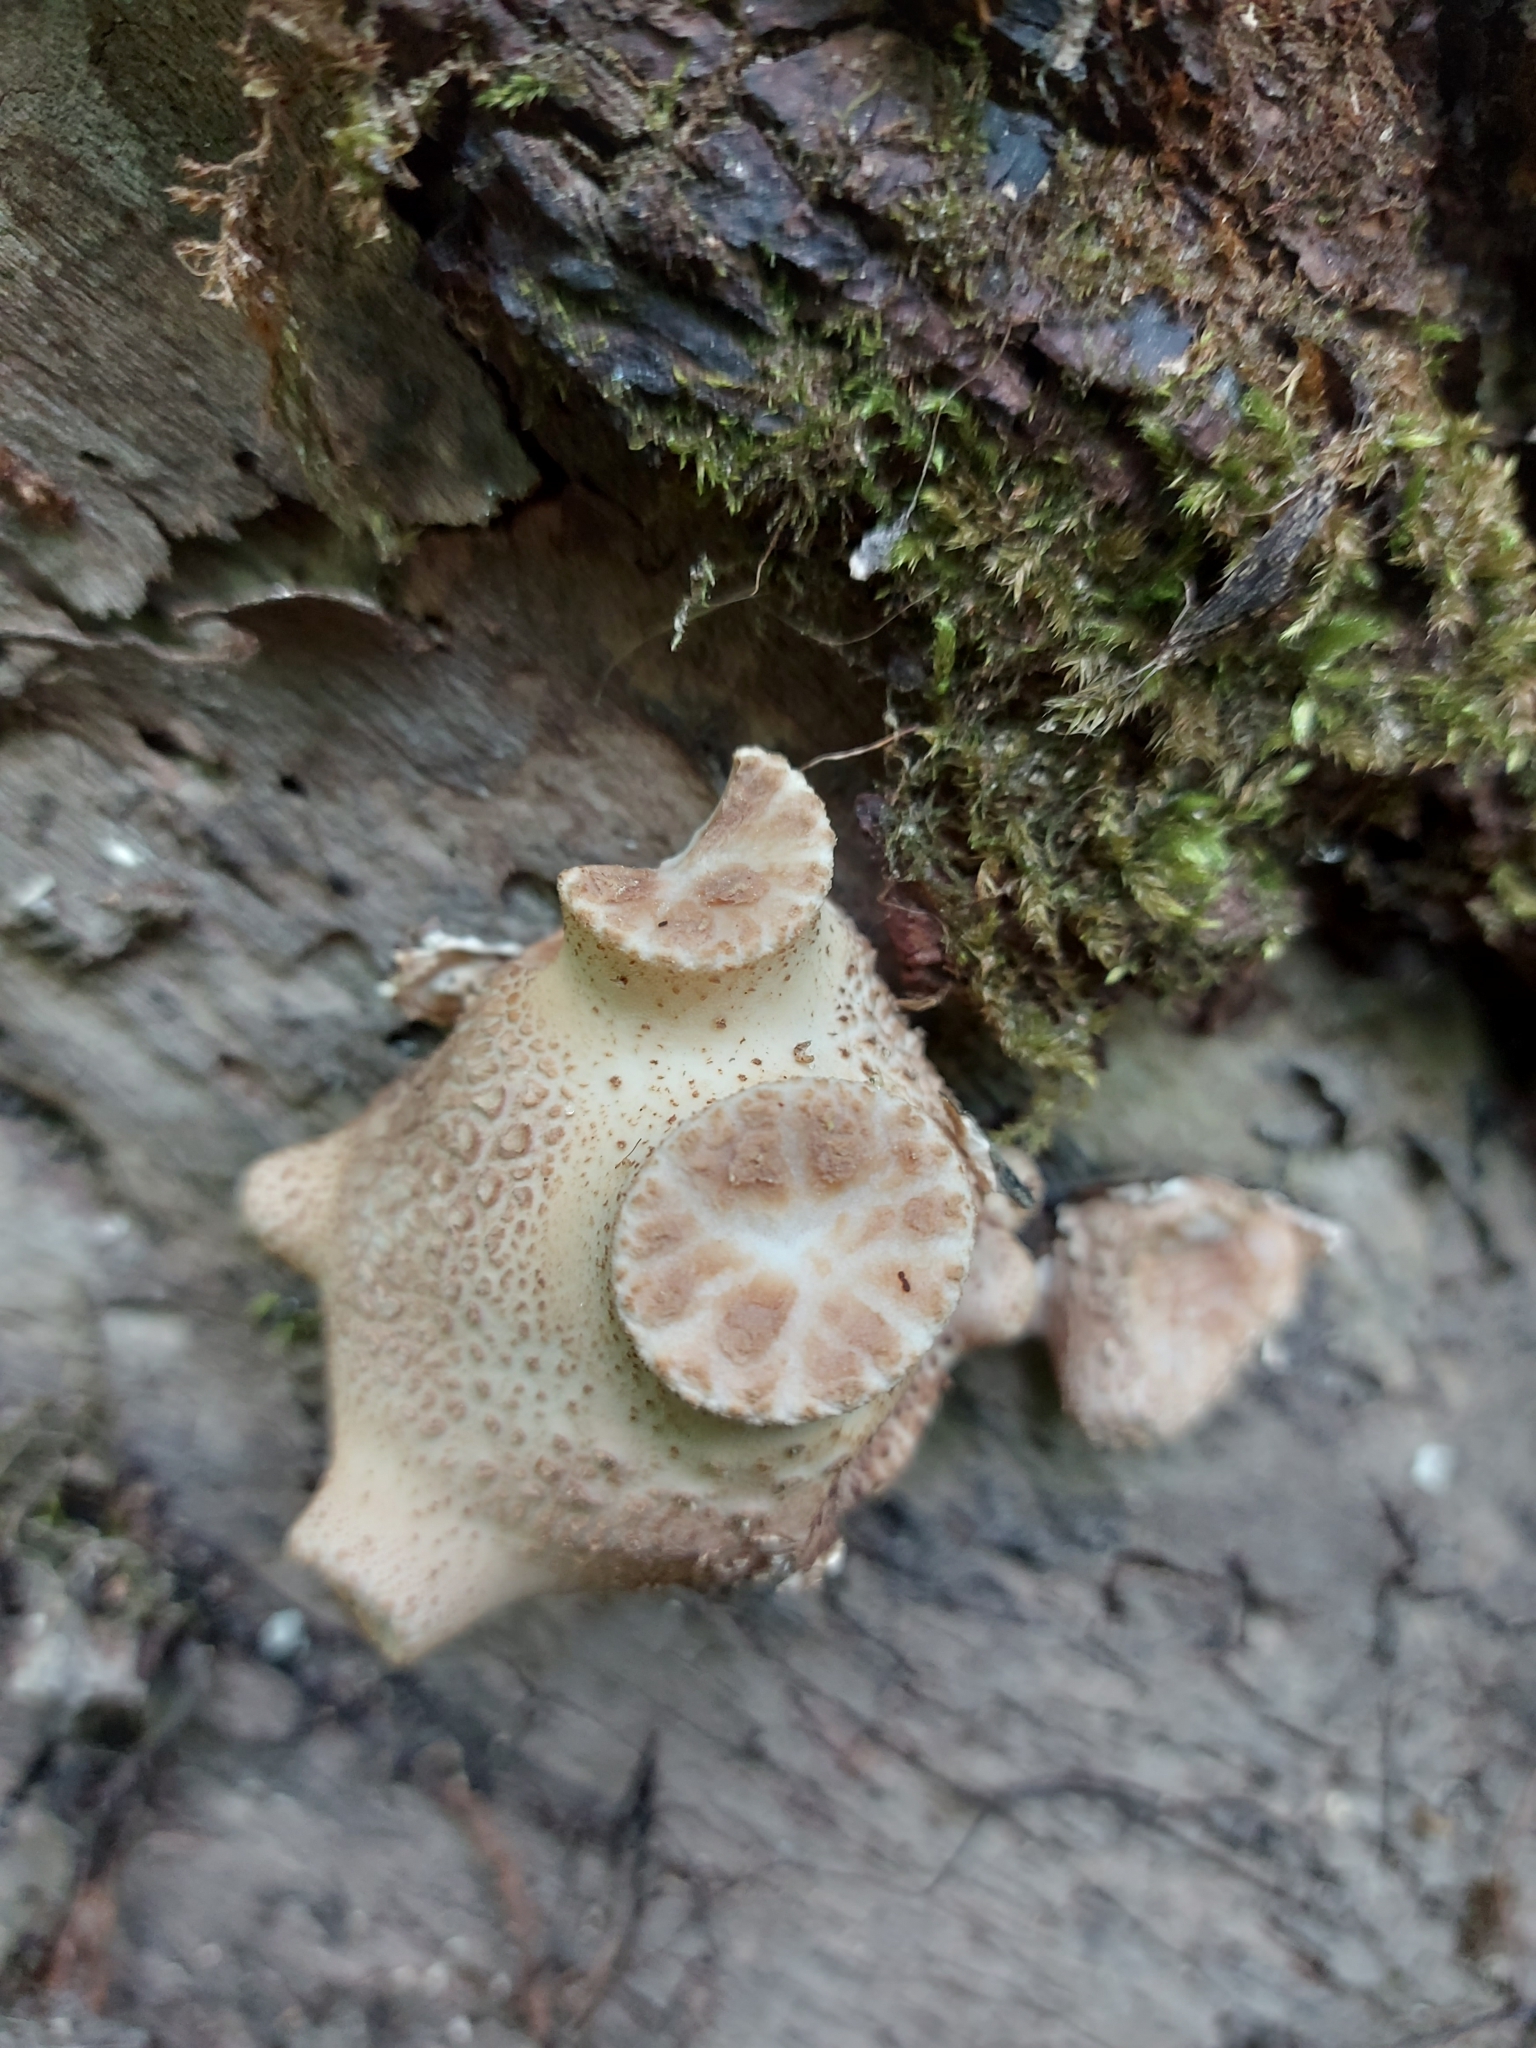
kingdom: Fungi
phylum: Basidiomycota
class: Agaricomycetes
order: Polyporales
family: Polyporaceae
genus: Cerioporus
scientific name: Cerioporus squamosus
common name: Dryad's saddle
